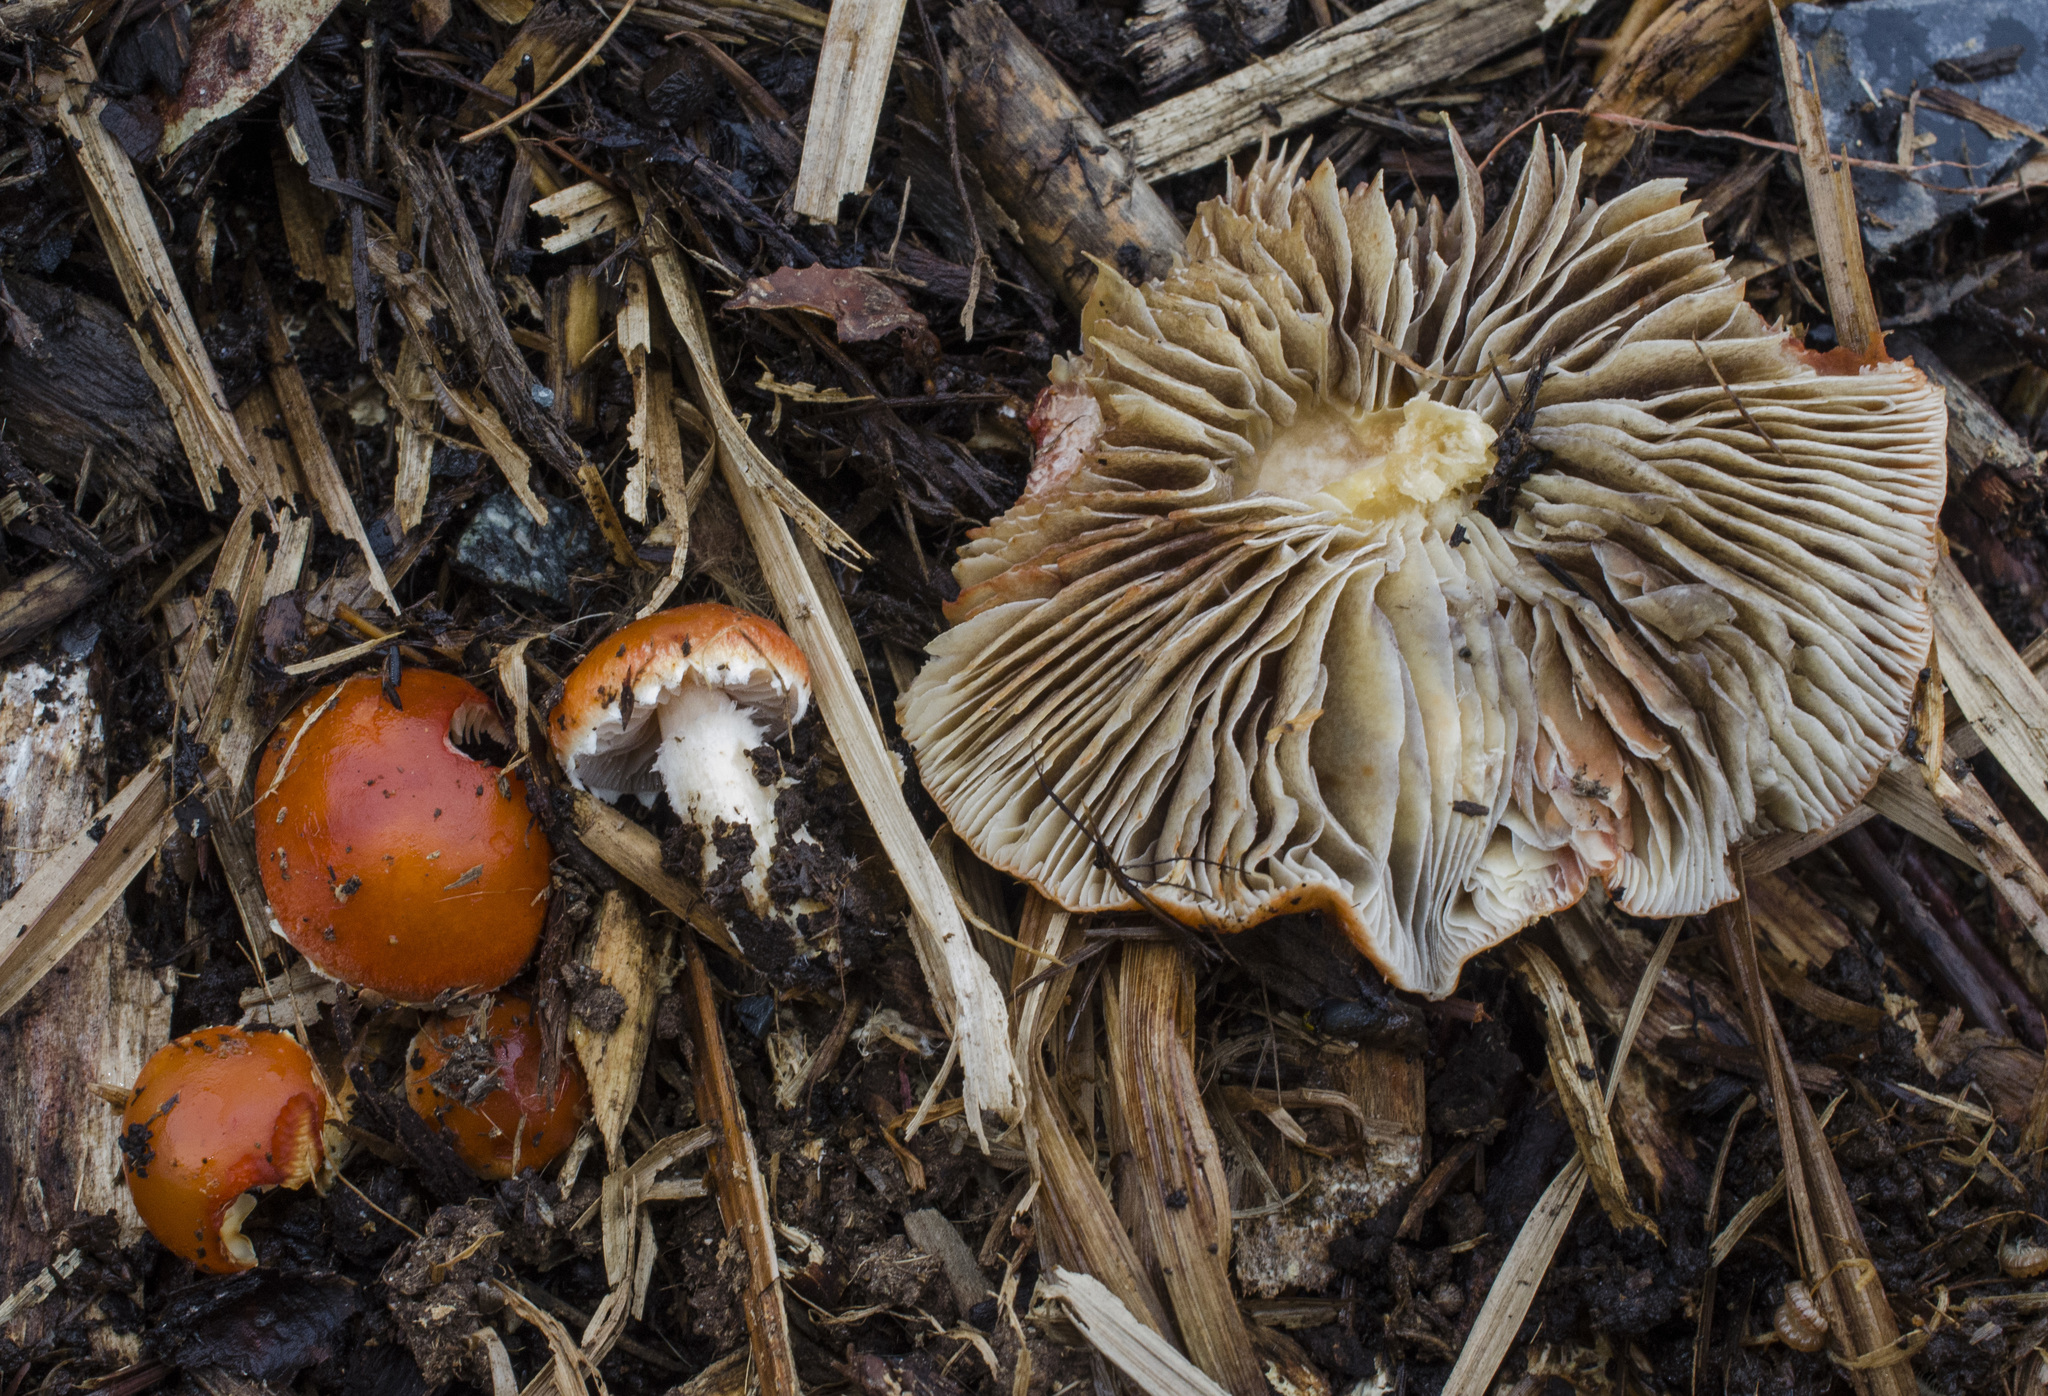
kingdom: Fungi
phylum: Basidiomycota
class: Agaricomycetes
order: Agaricales
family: Strophariaceae
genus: Leratiomyces
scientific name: Leratiomyces ceres
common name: Redlead roundhead
